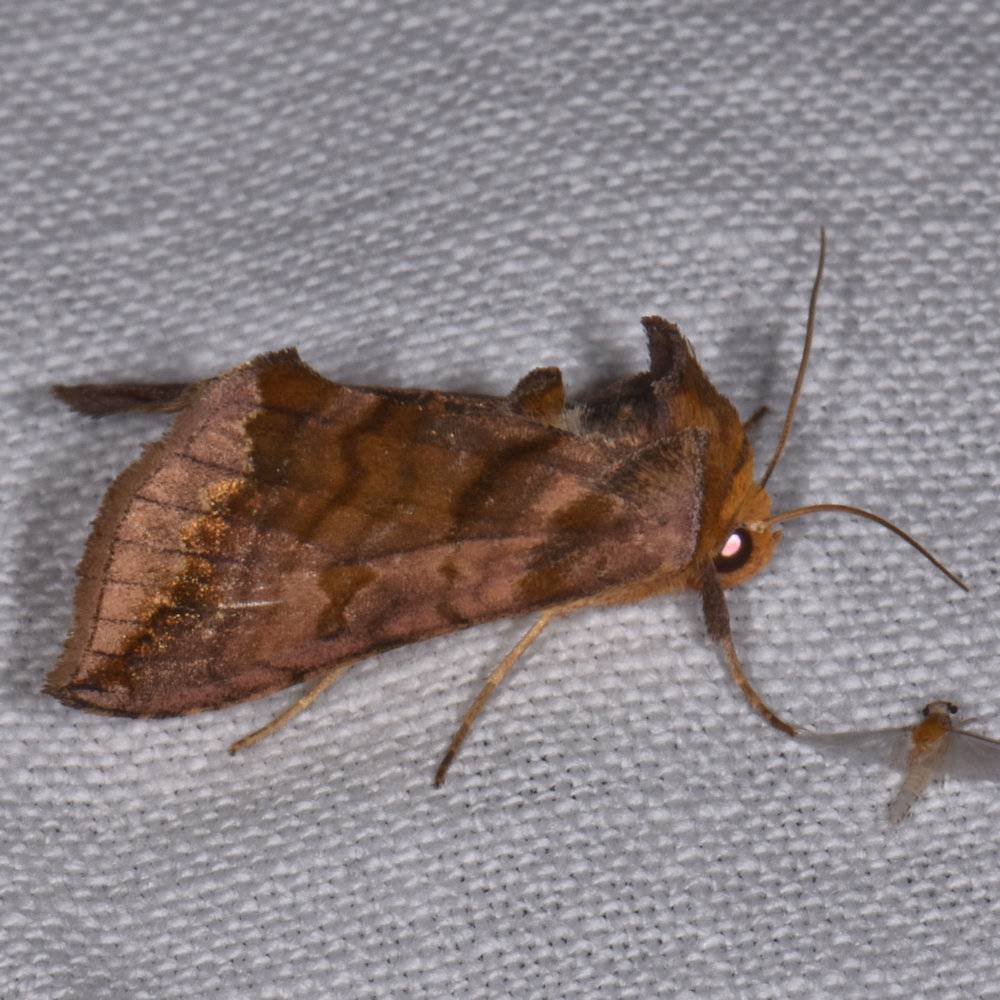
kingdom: Animalia
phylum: Arthropoda
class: Insecta
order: Lepidoptera
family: Noctuidae
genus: Allagrapha
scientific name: Allagrapha aerea
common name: Unspotted looper moth
